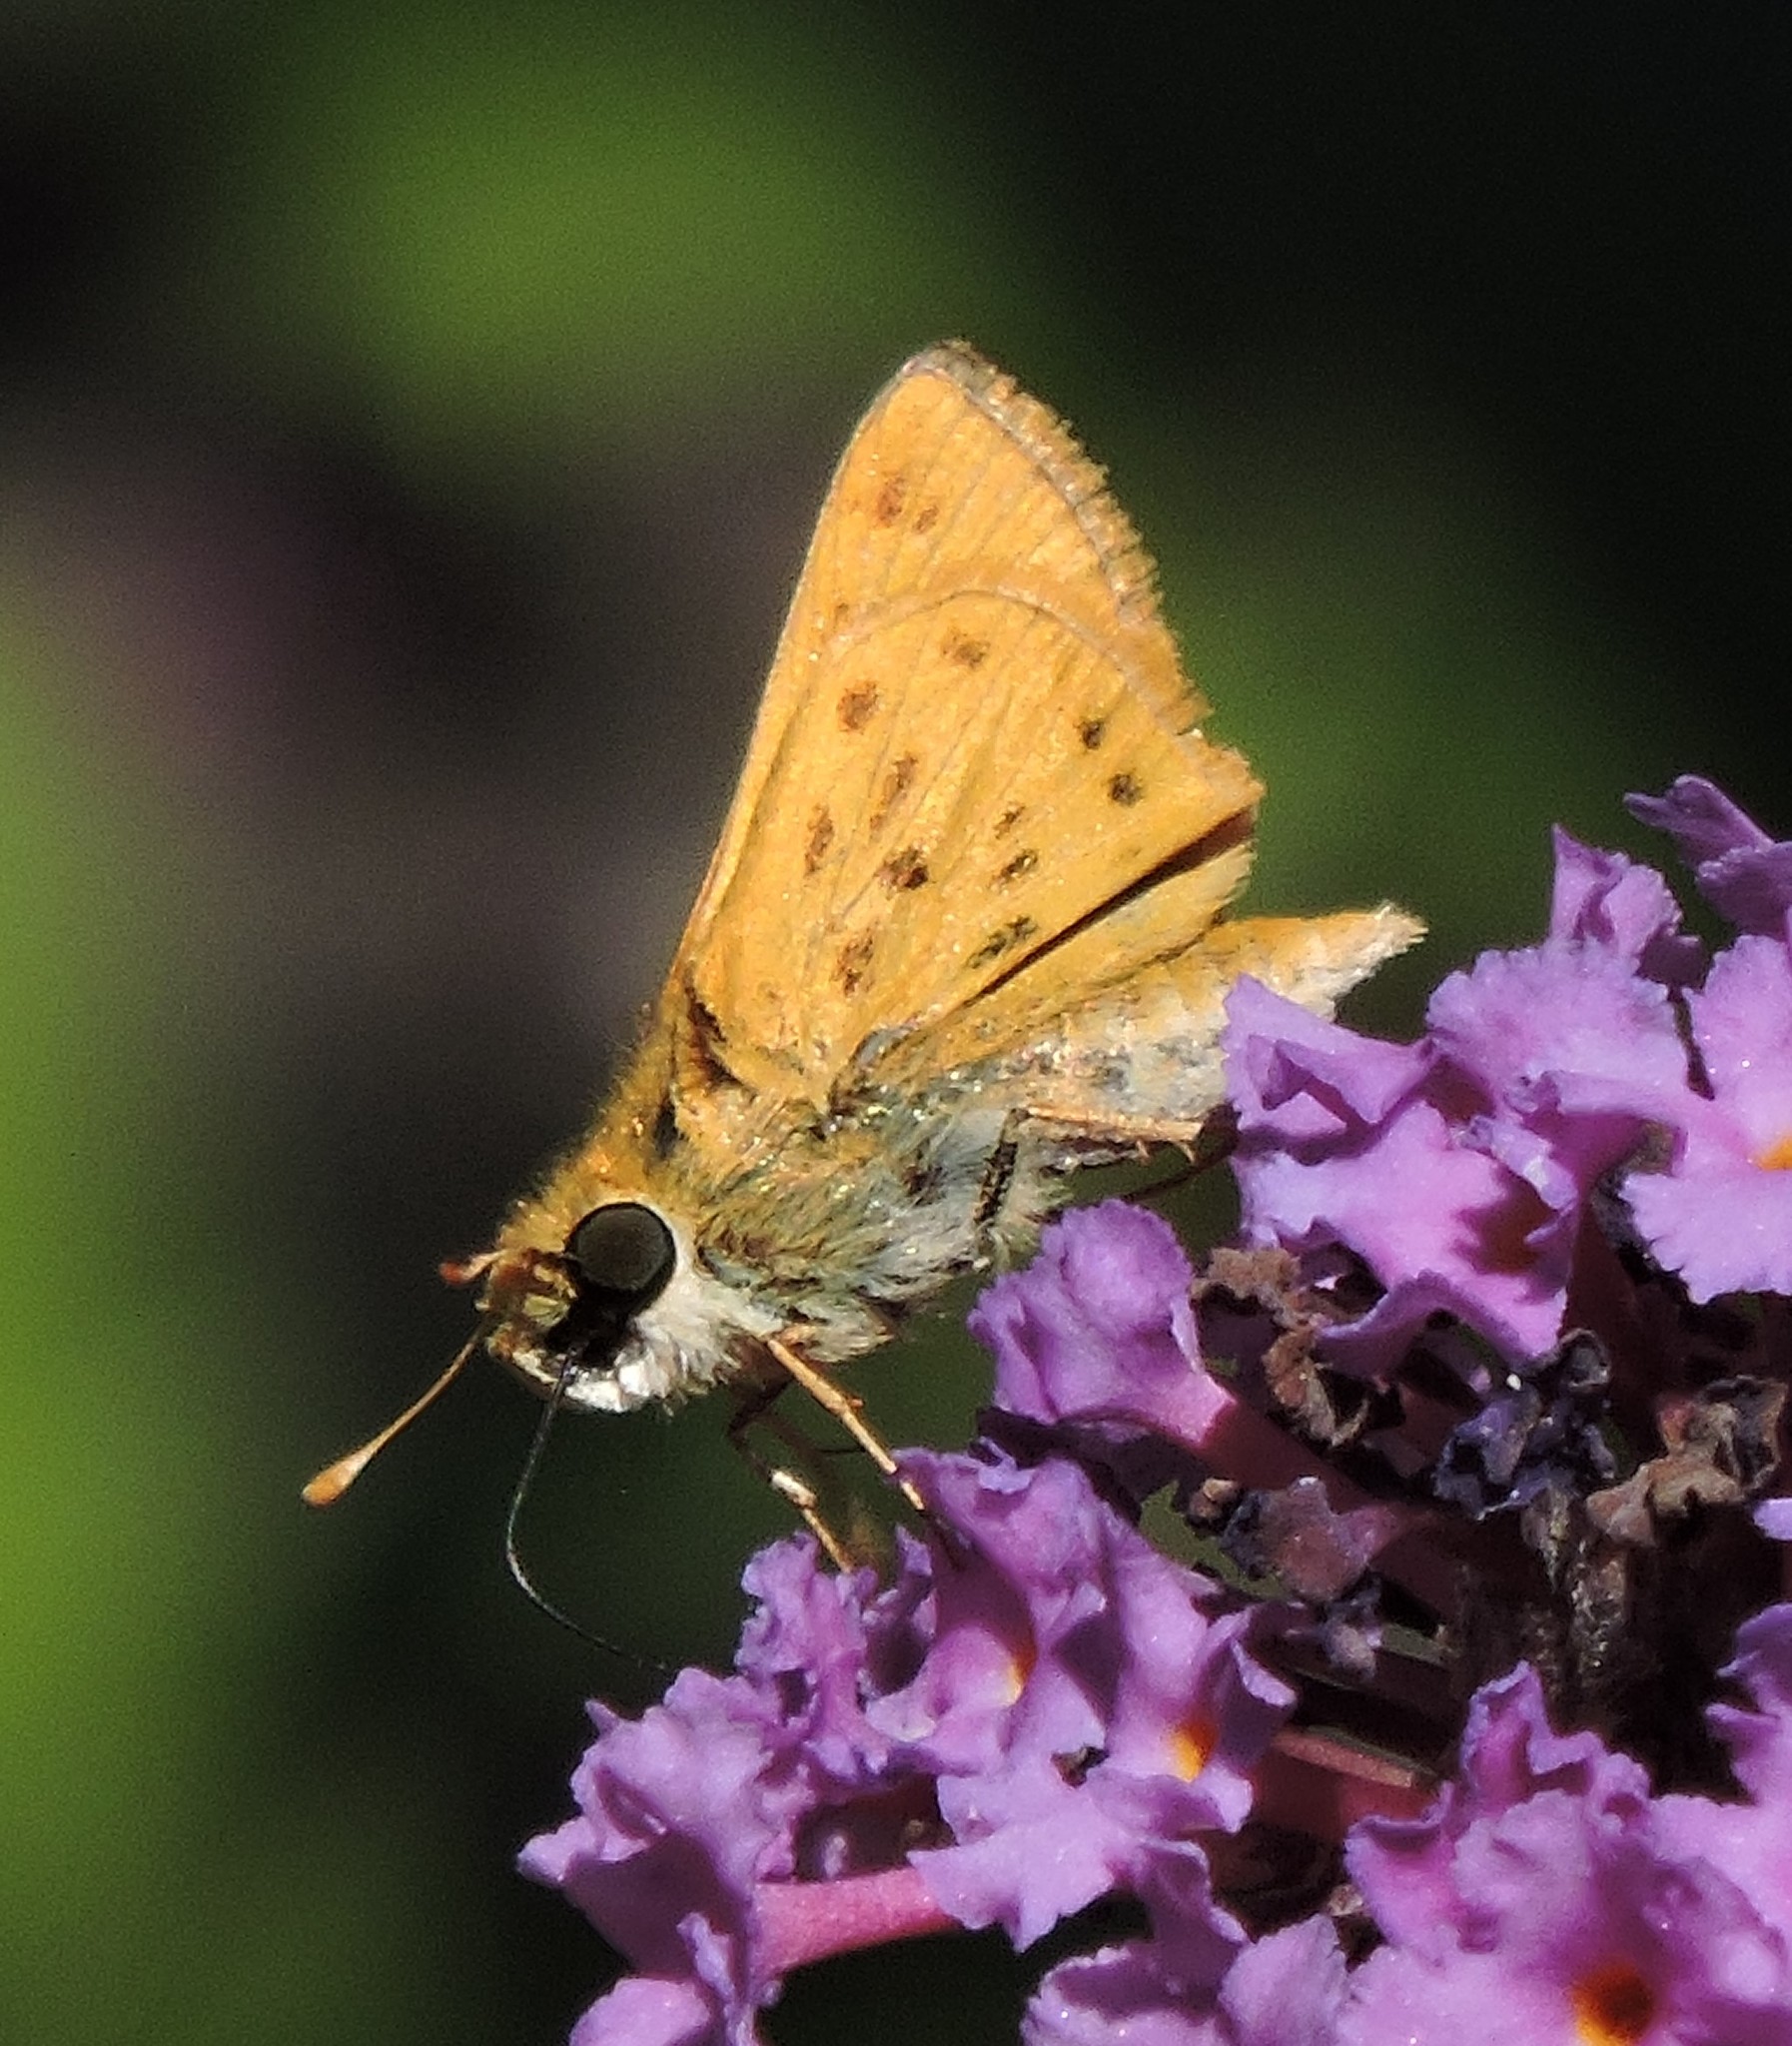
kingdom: Animalia
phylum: Arthropoda
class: Insecta
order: Lepidoptera
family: Hesperiidae
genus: Hylephila
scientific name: Hylephila phyleus
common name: Fiery skipper
